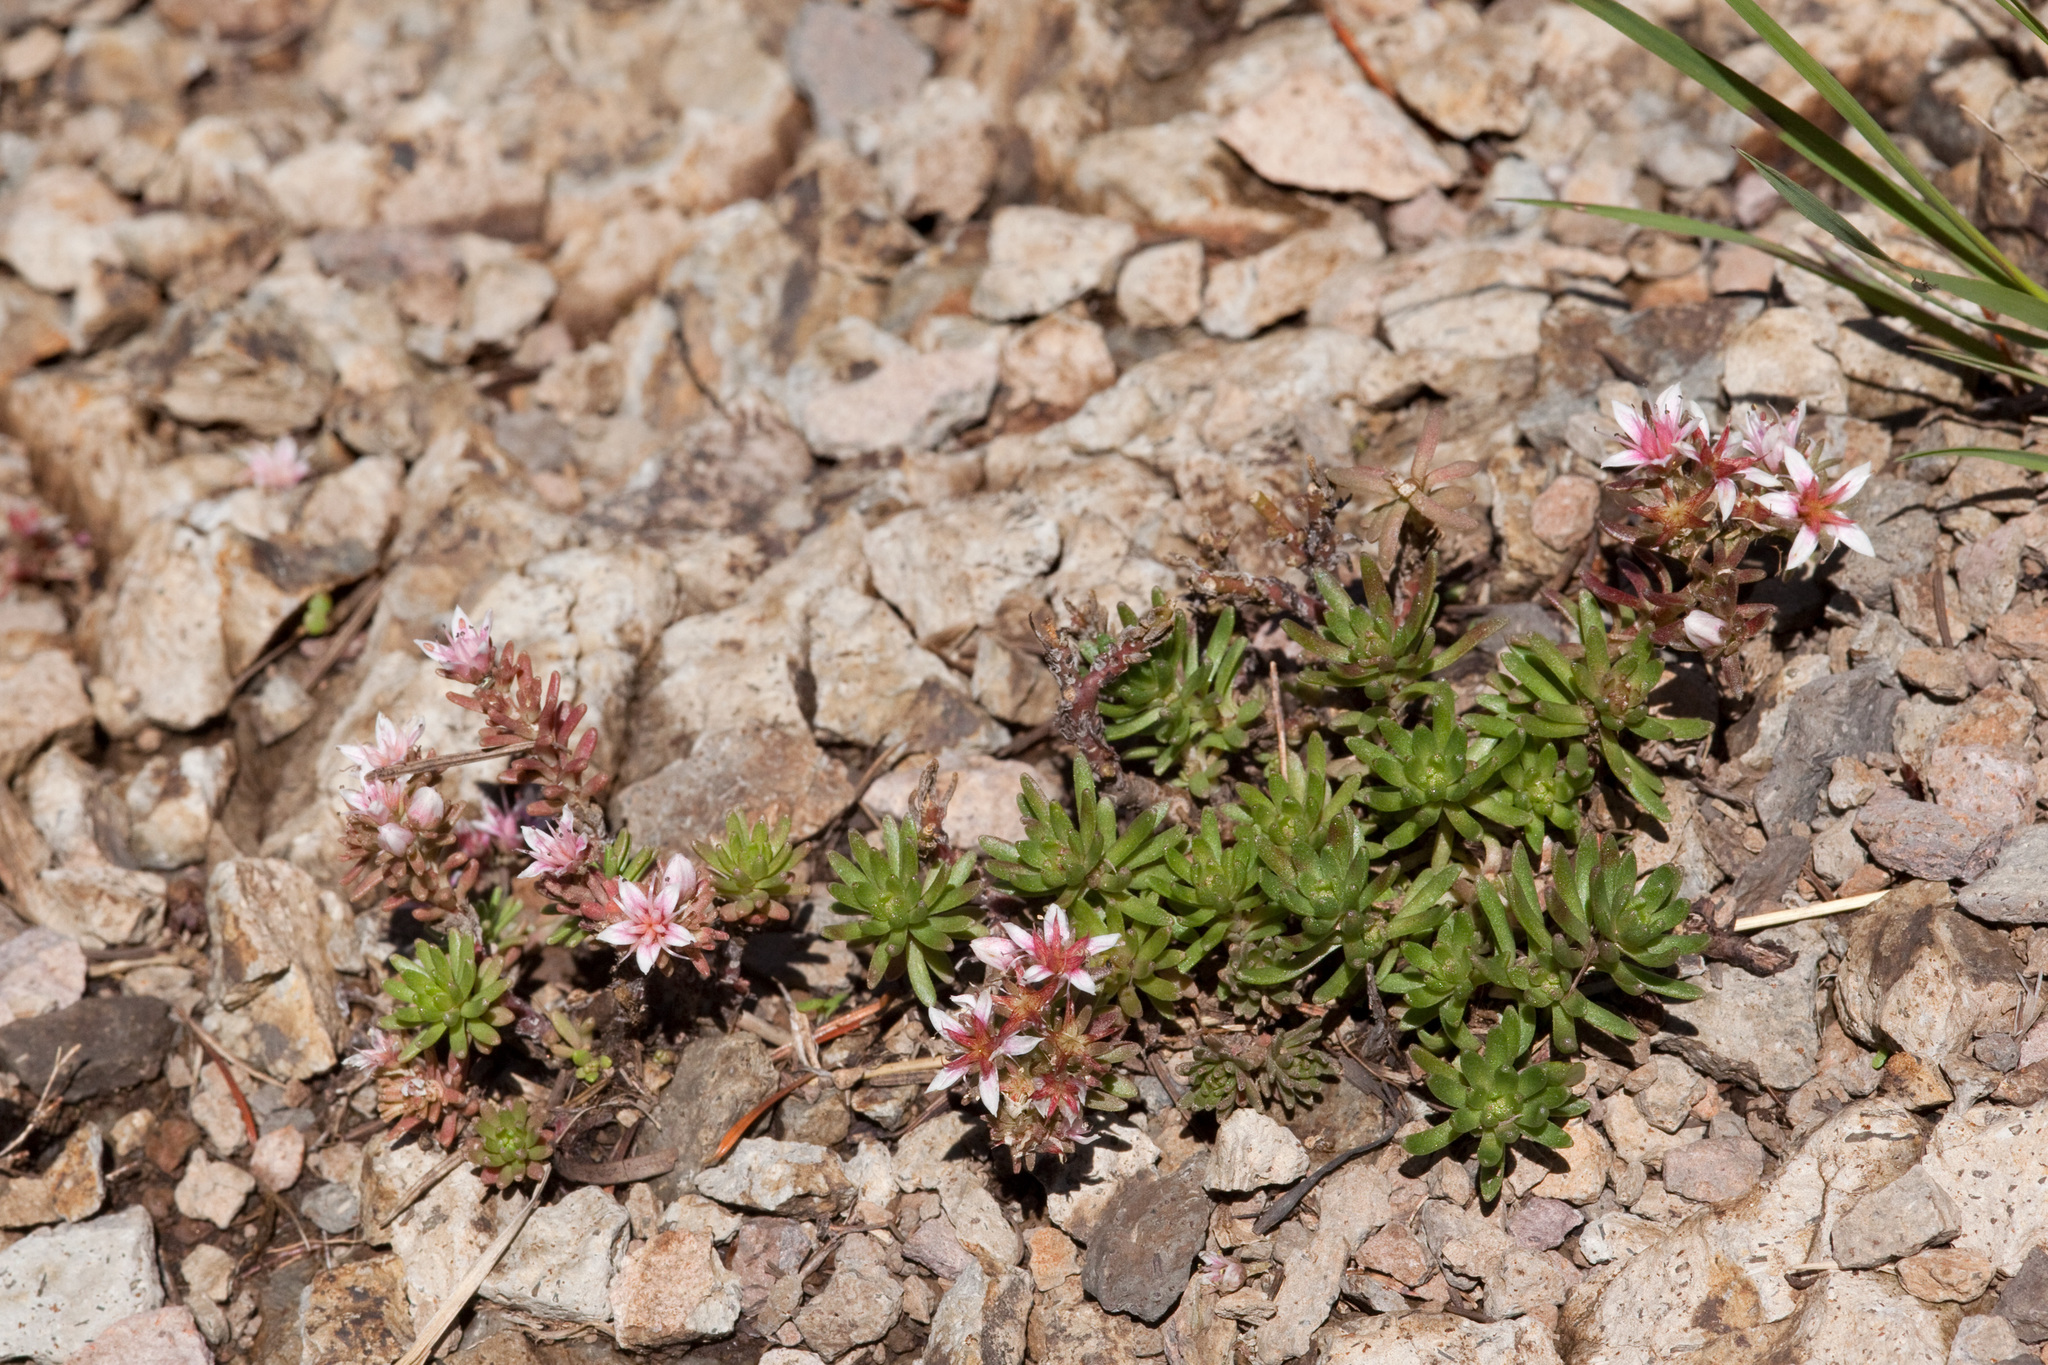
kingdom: Plantae
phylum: Tracheophyta
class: Magnoliopsida
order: Saxifragales
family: Crassulaceae
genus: Sedum
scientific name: Sedum stelliforme
